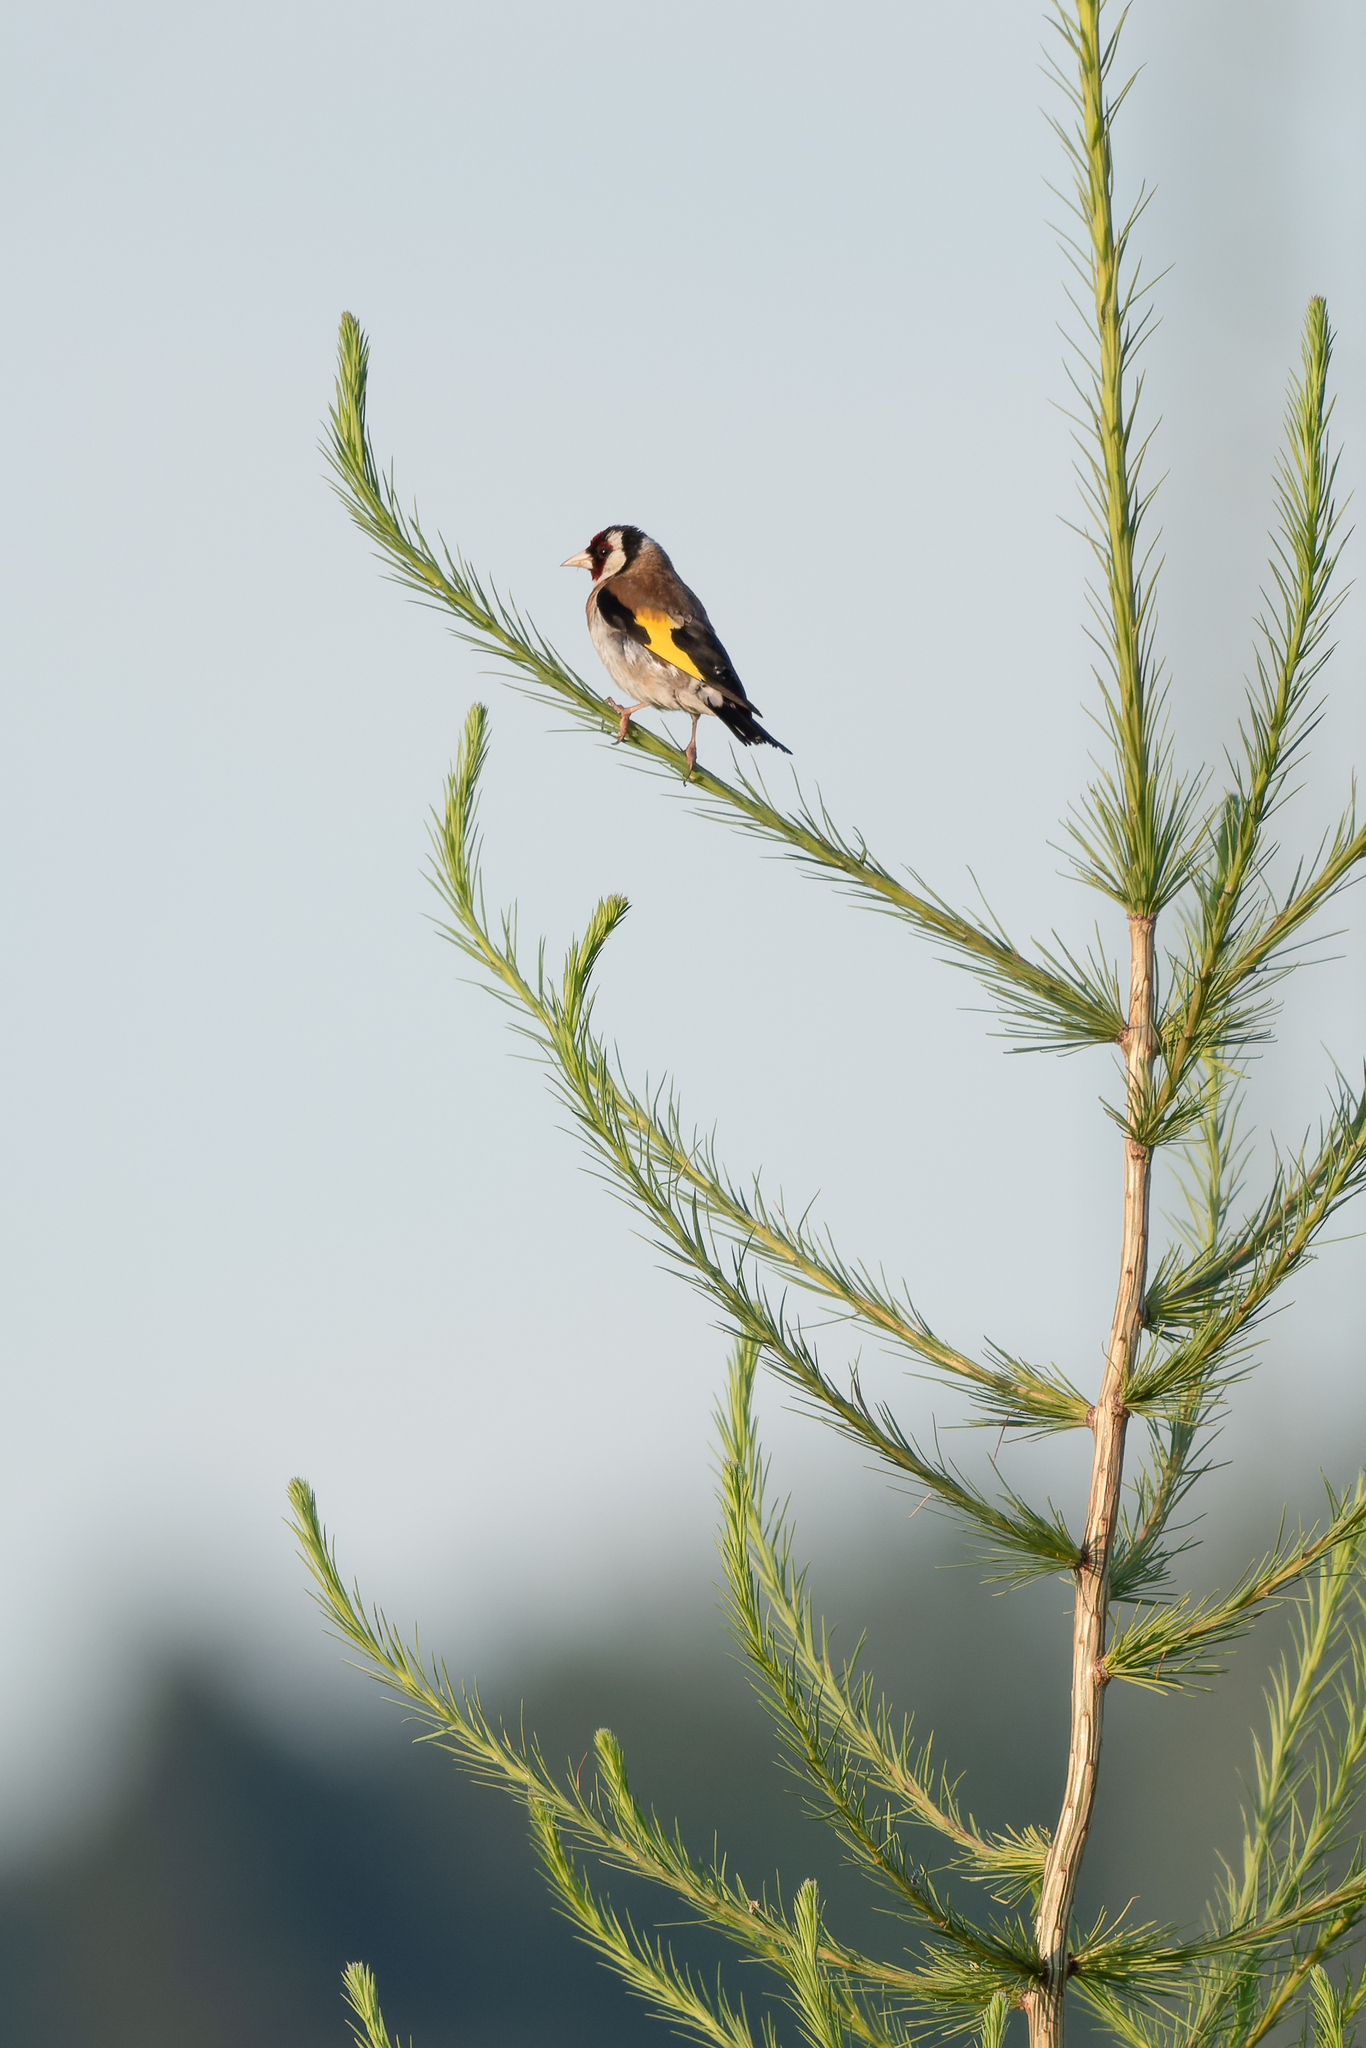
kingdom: Animalia
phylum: Chordata
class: Aves
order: Passeriformes
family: Fringillidae
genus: Carduelis
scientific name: Carduelis carduelis
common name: European goldfinch
